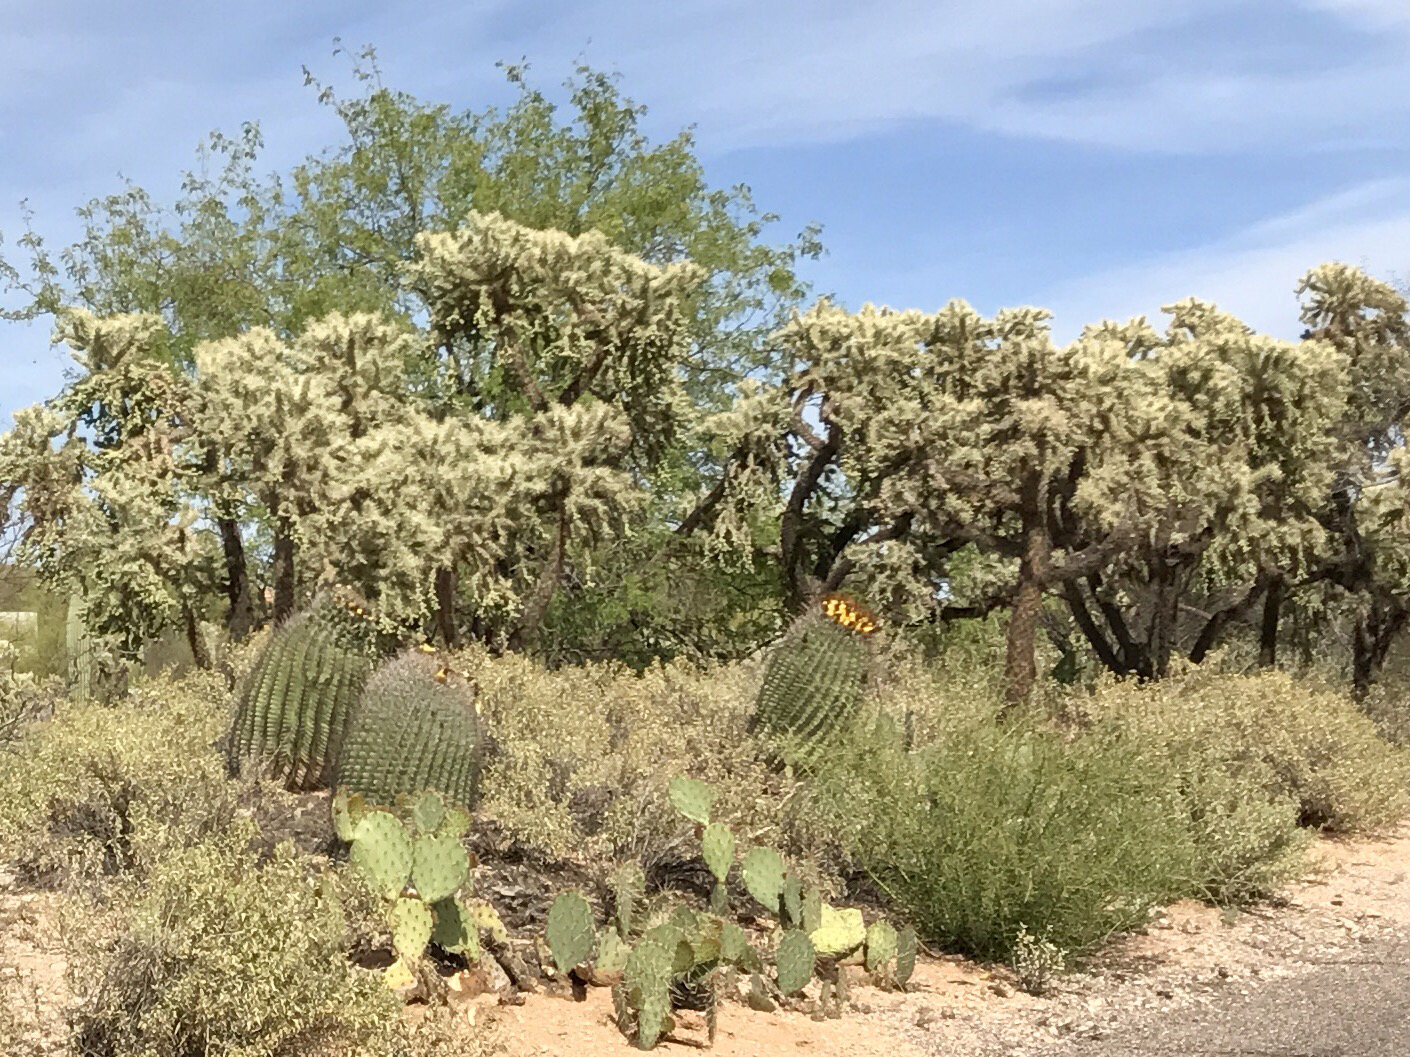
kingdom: Plantae
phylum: Tracheophyta
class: Magnoliopsida
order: Caryophyllales
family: Cactaceae
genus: Ferocactus
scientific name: Ferocactus wislizeni
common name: Candy barrel cactus
